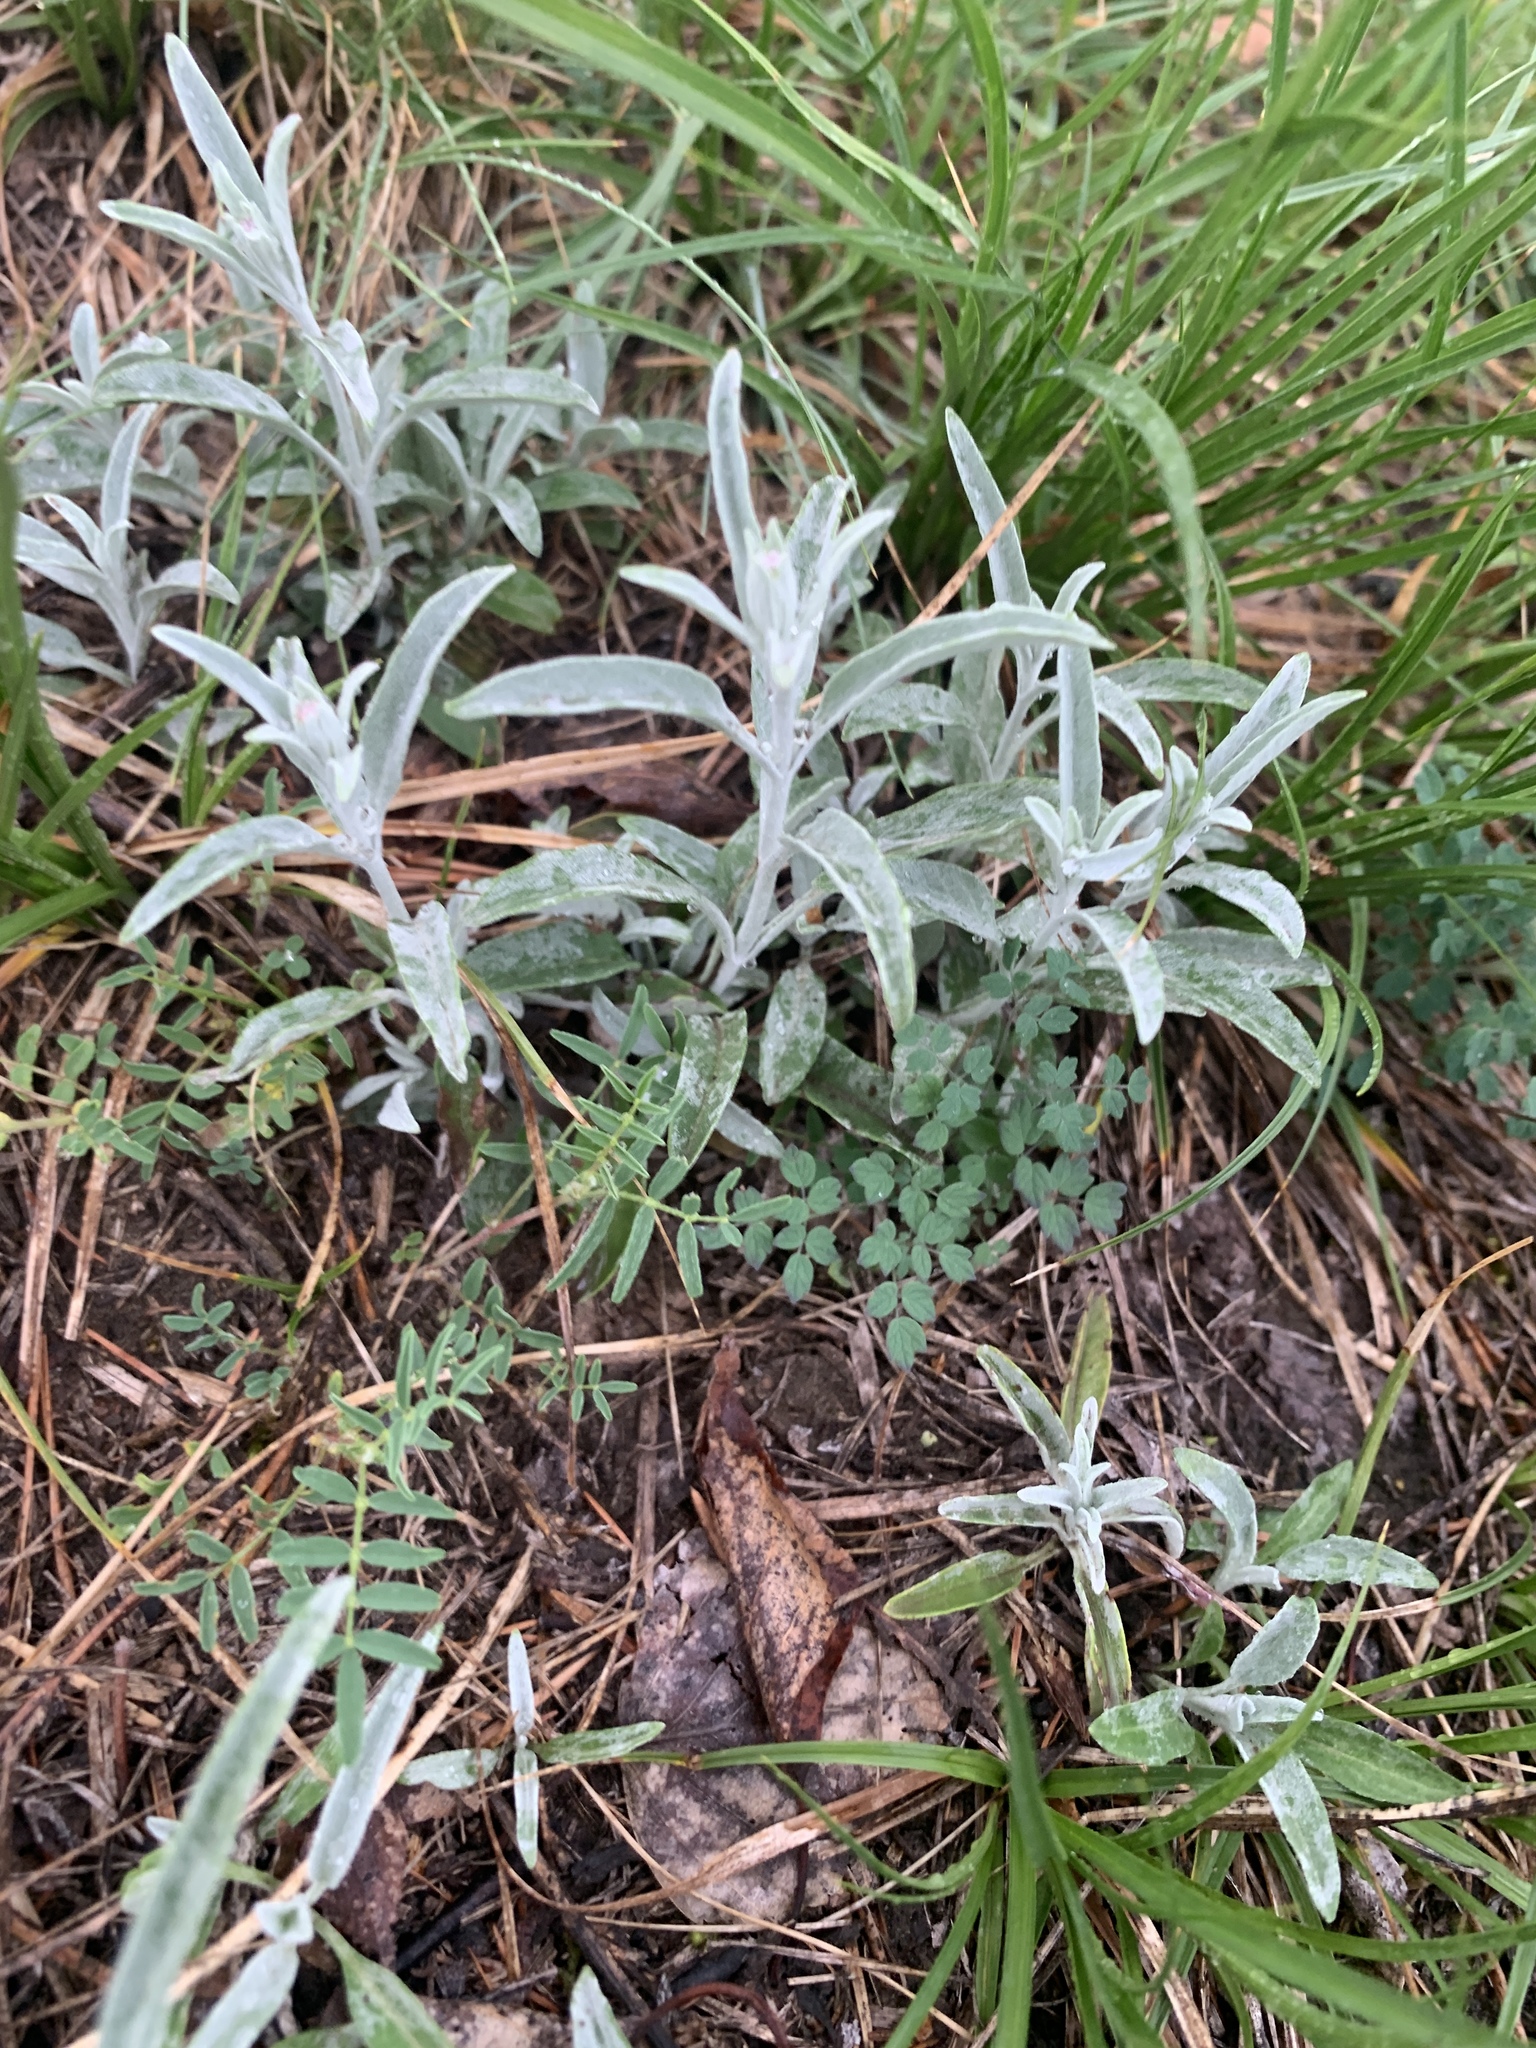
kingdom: Plantae
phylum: Tracheophyta
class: Magnoliopsida
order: Lamiales
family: Plantaginaceae
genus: Veronica
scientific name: Veronica incana
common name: Silver speedwell
